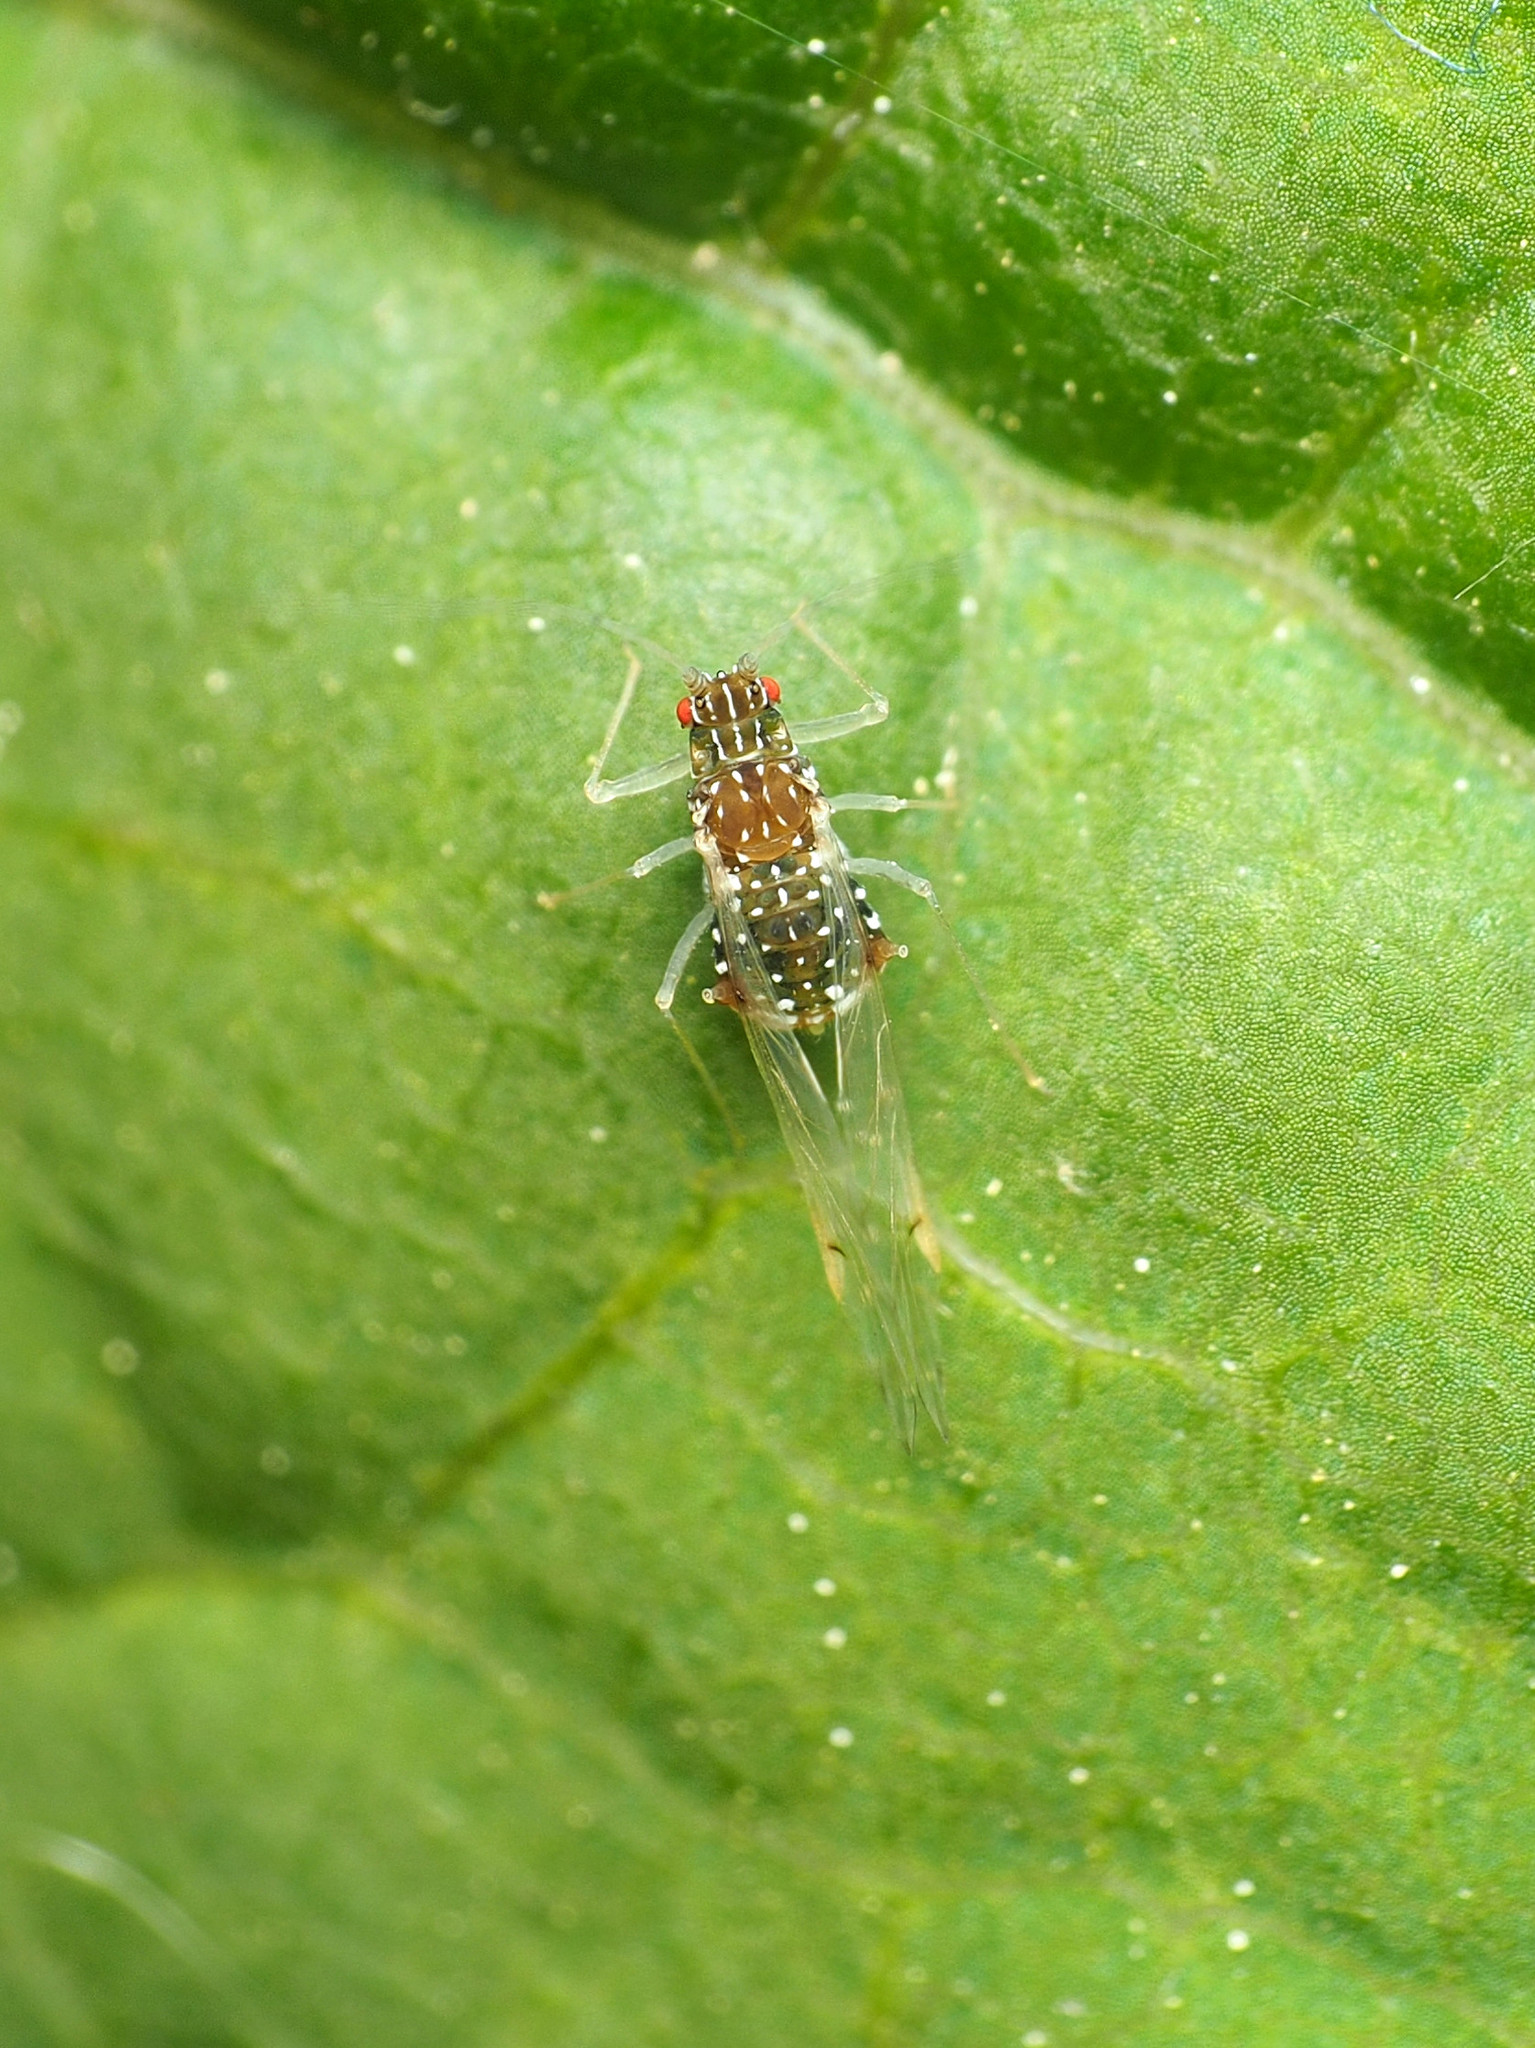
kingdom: Animalia
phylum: Arthropoda
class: Insecta
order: Hemiptera
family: Aphididae
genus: Drepanaphis
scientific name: Drepanaphis
